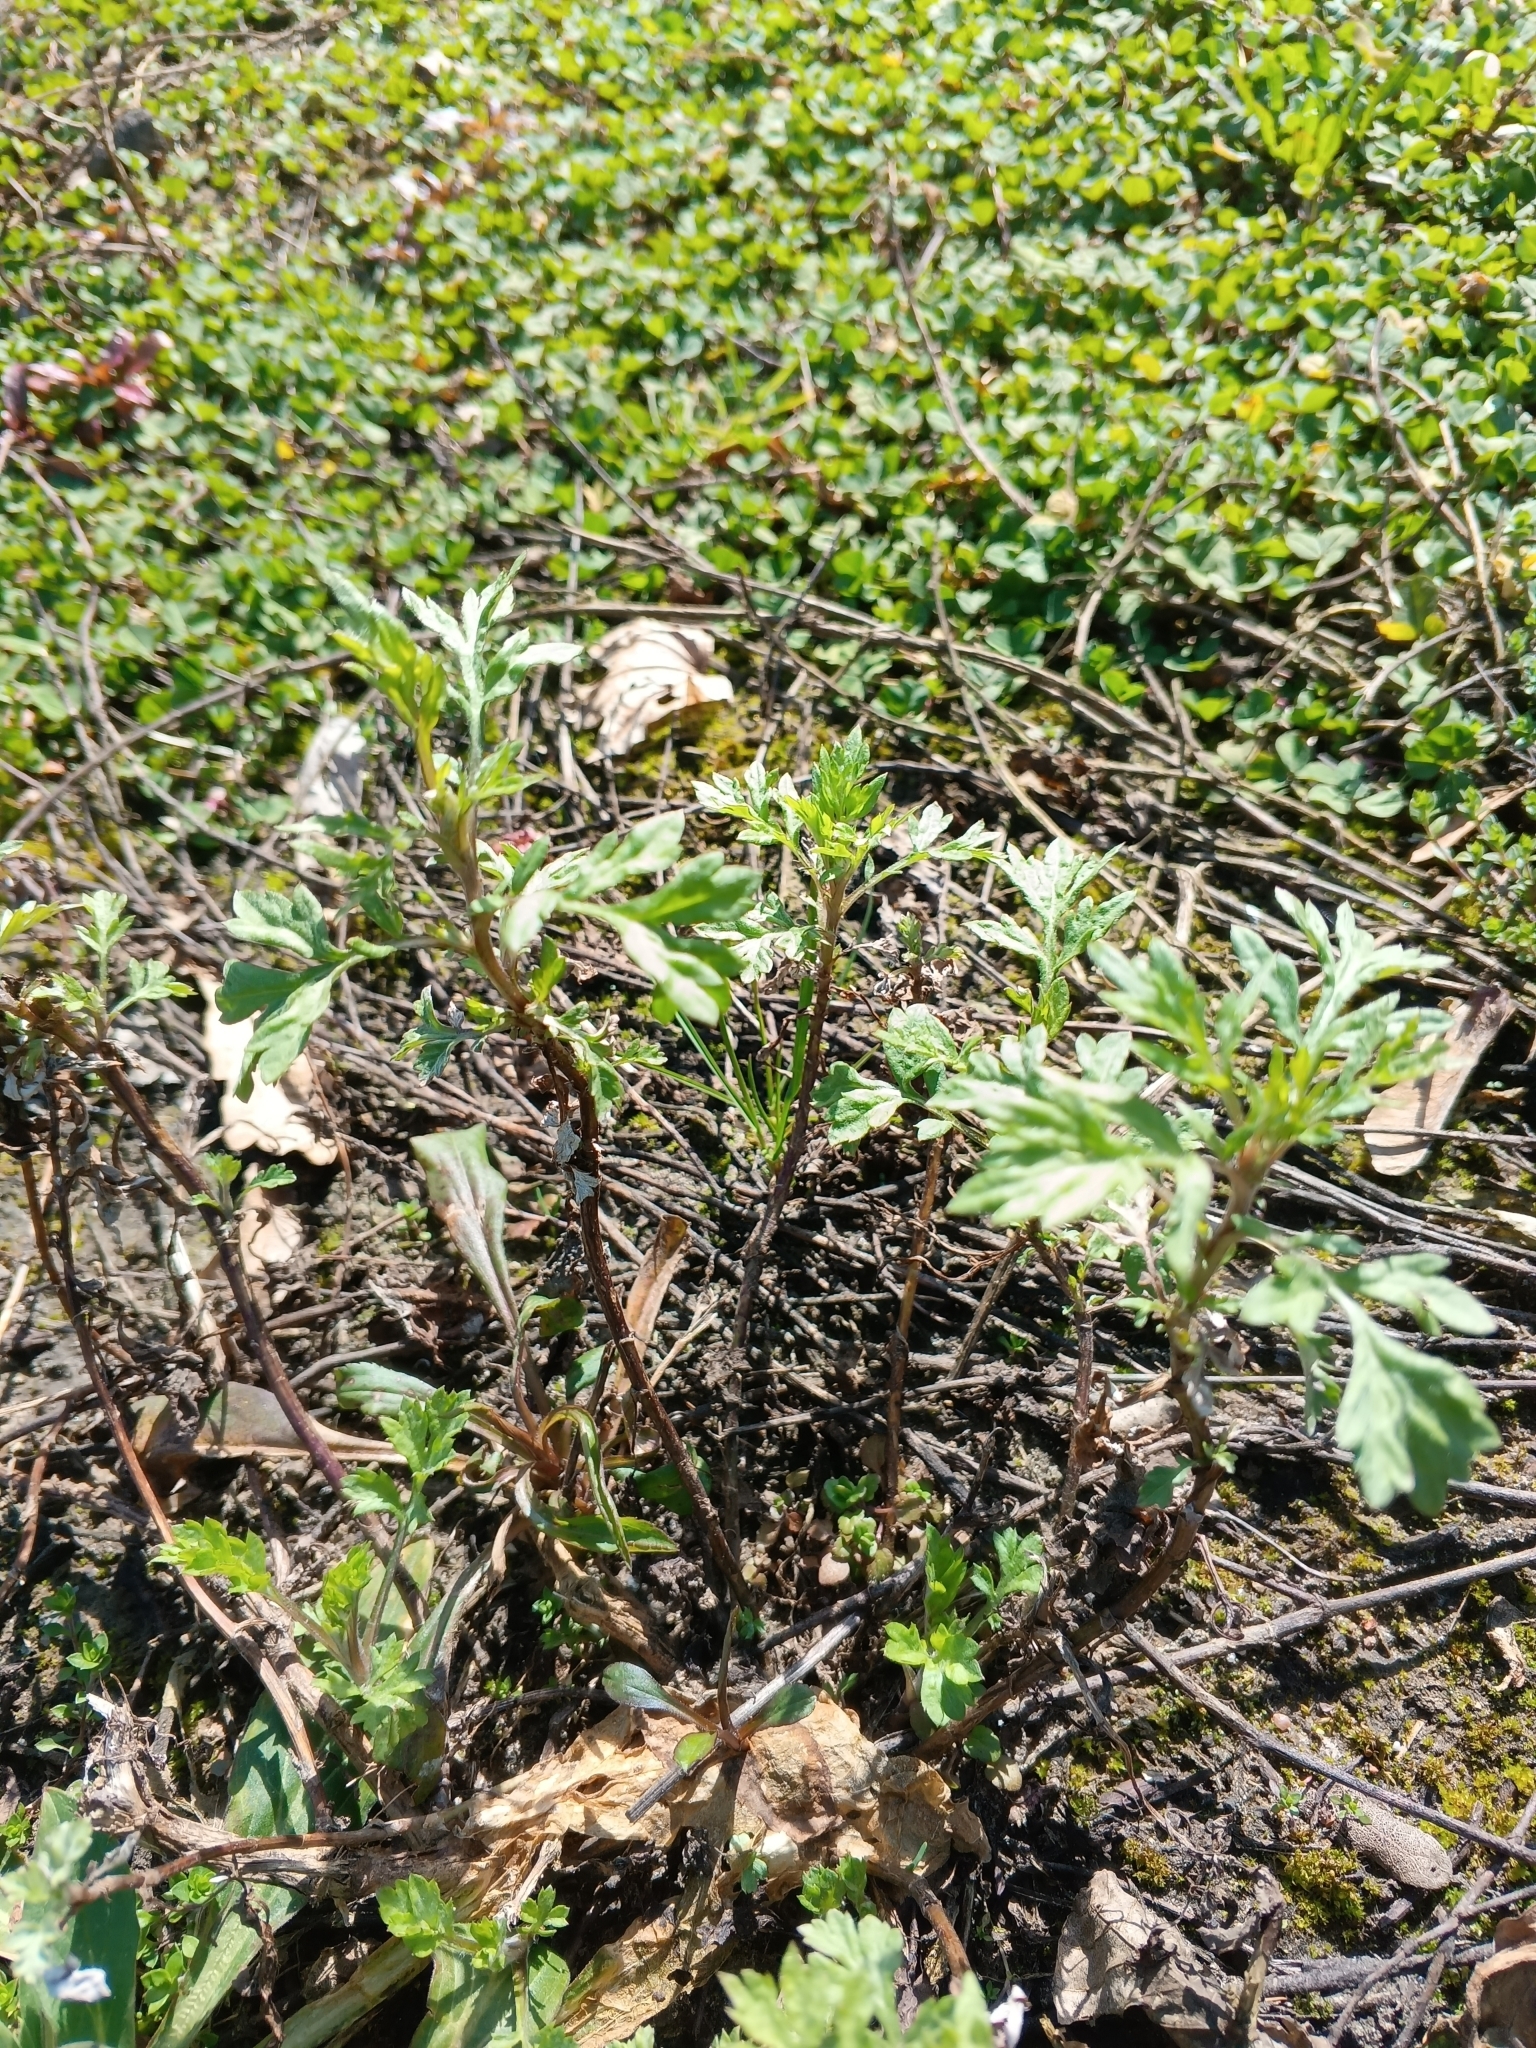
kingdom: Plantae
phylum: Tracheophyta
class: Magnoliopsida
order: Asterales
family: Asteraceae
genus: Artemisia
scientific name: Artemisia vulgaris
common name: Mugwort
